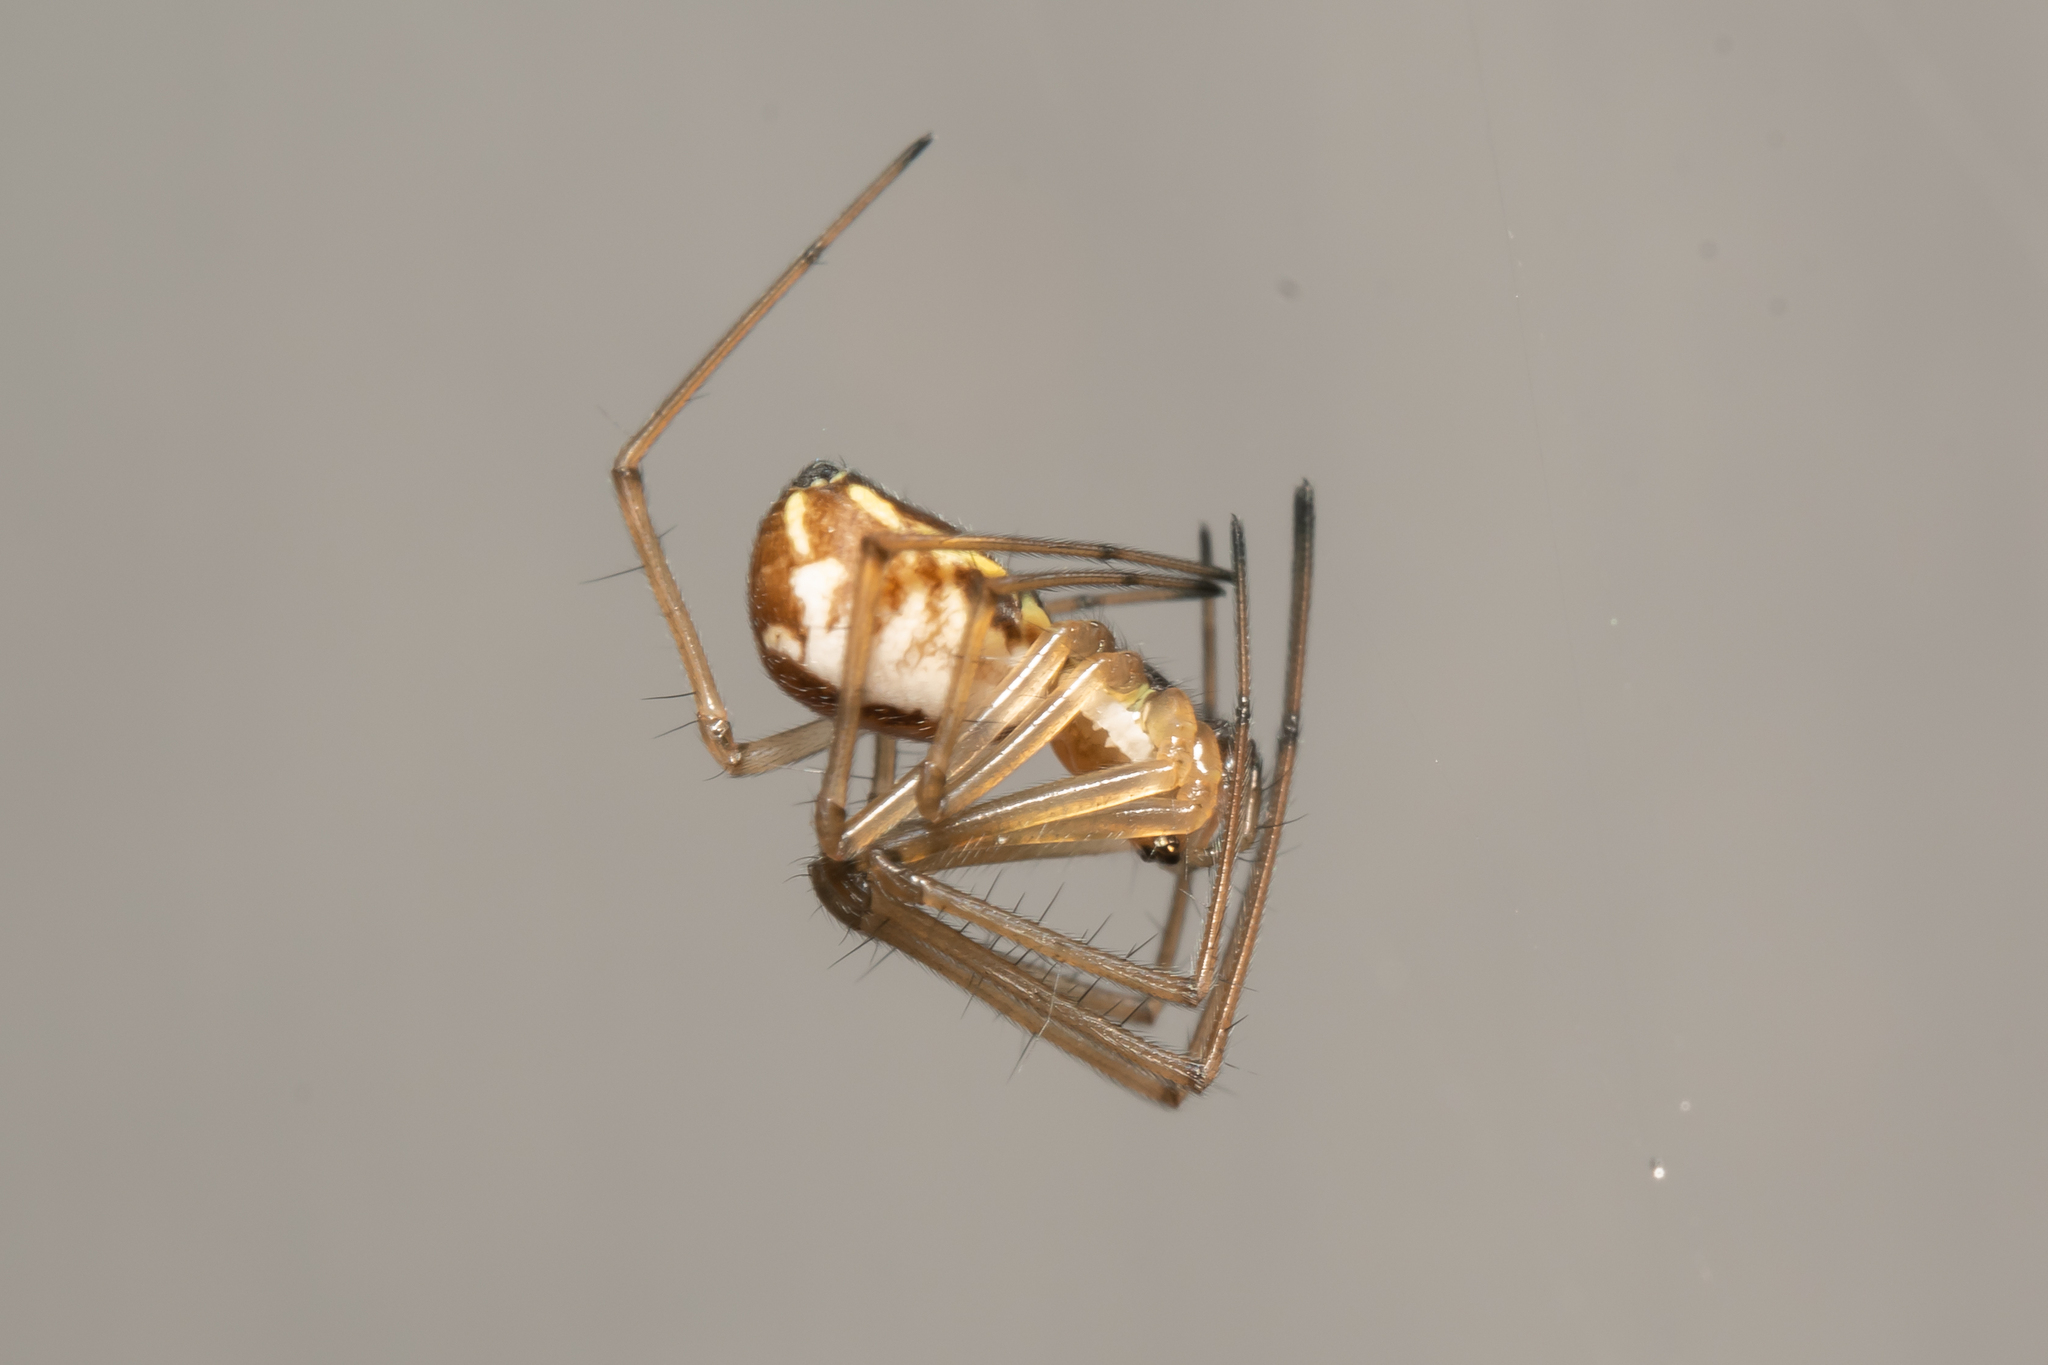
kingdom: Animalia
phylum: Arthropoda
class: Arachnida
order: Araneae
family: Linyphiidae
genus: Neriene
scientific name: Neriene radiata
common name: Filmy dome spider
